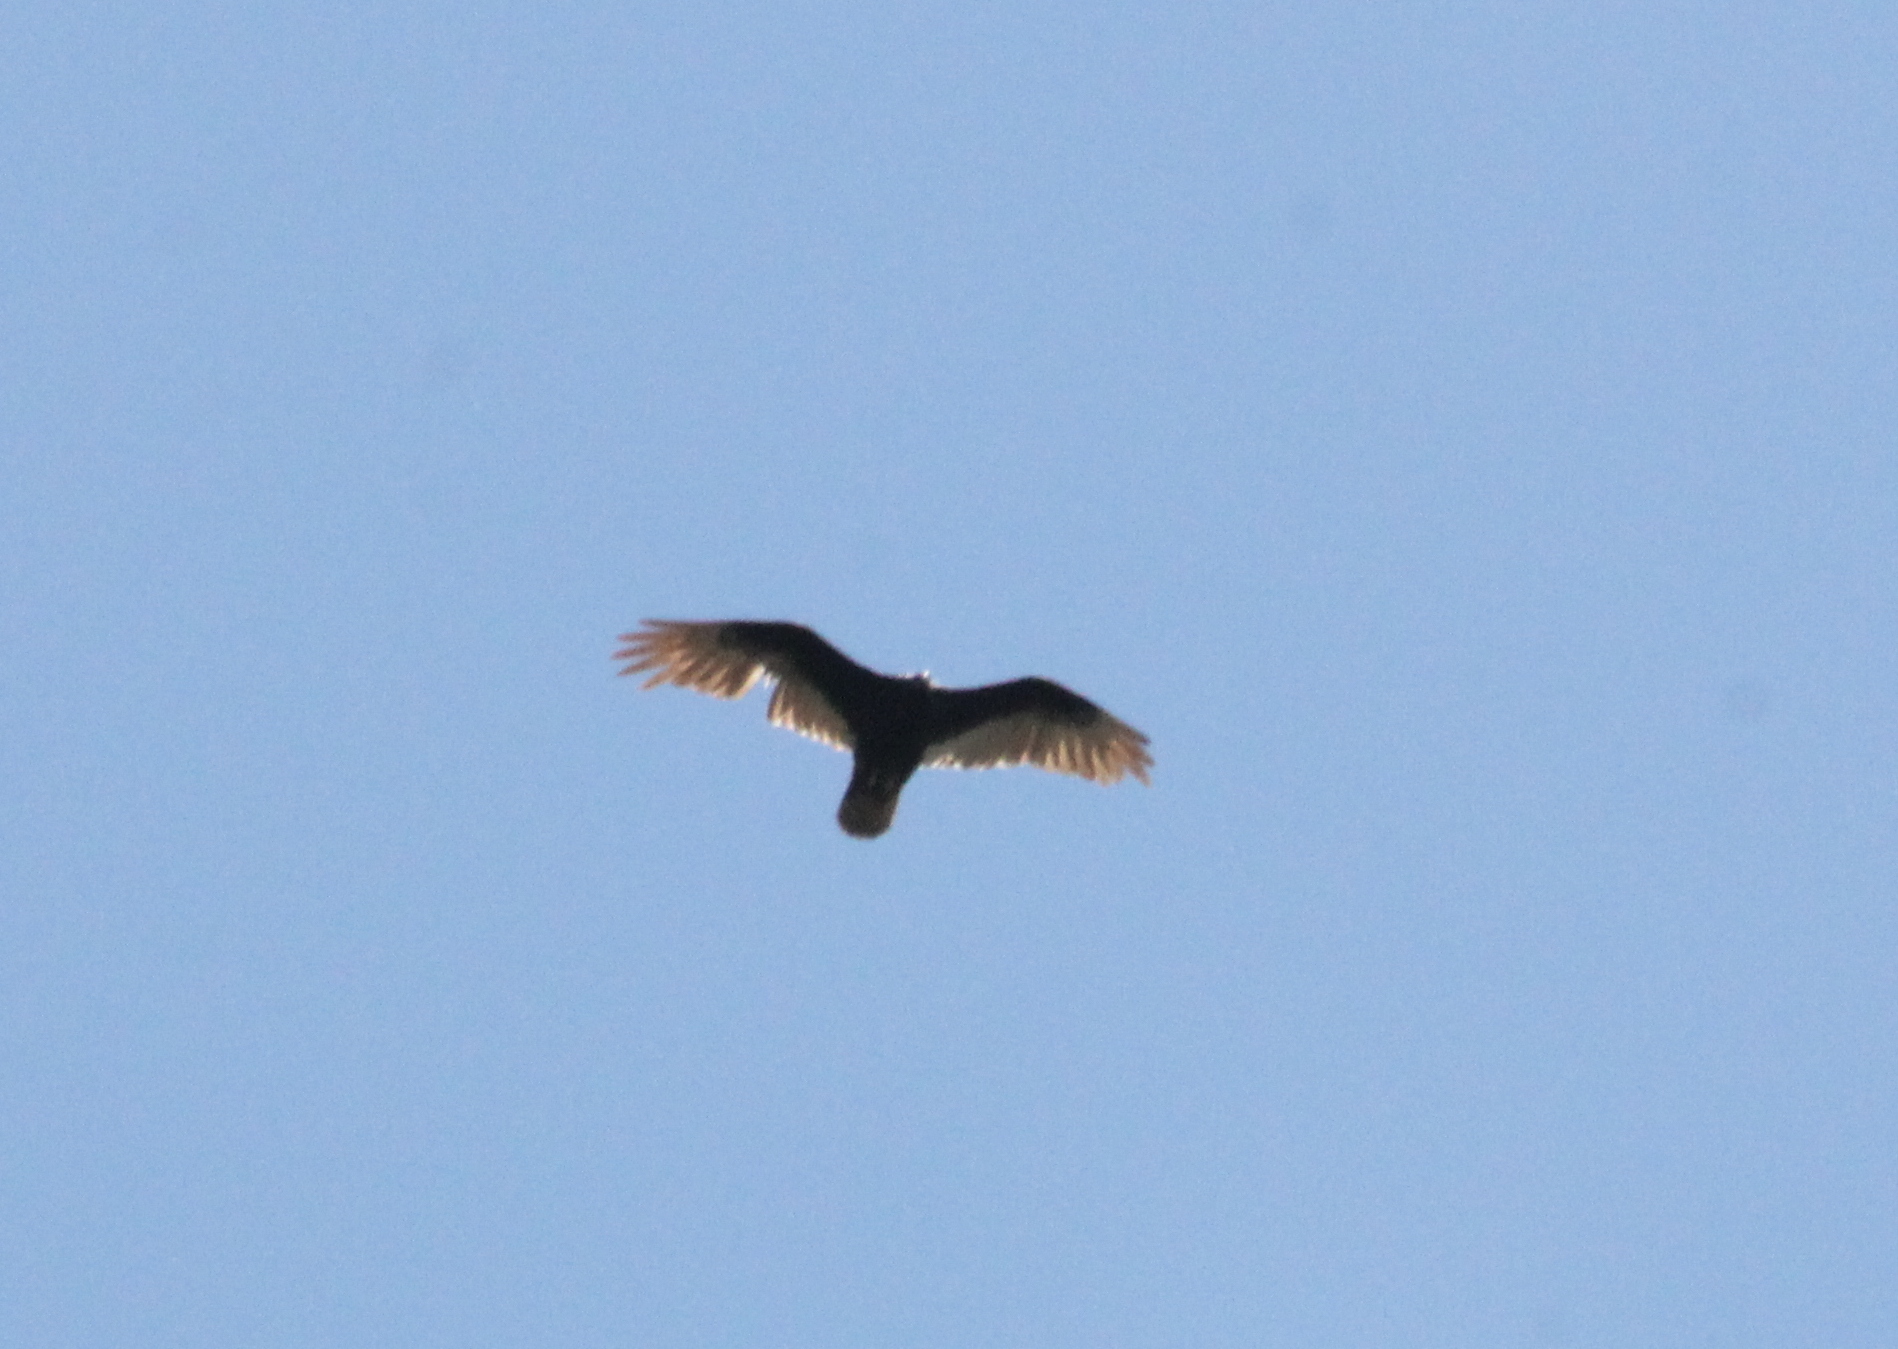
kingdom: Animalia
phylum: Chordata
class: Aves
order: Accipitriformes
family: Cathartidae
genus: Cathartes
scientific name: Cathartes aura
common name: Turkey vulture
